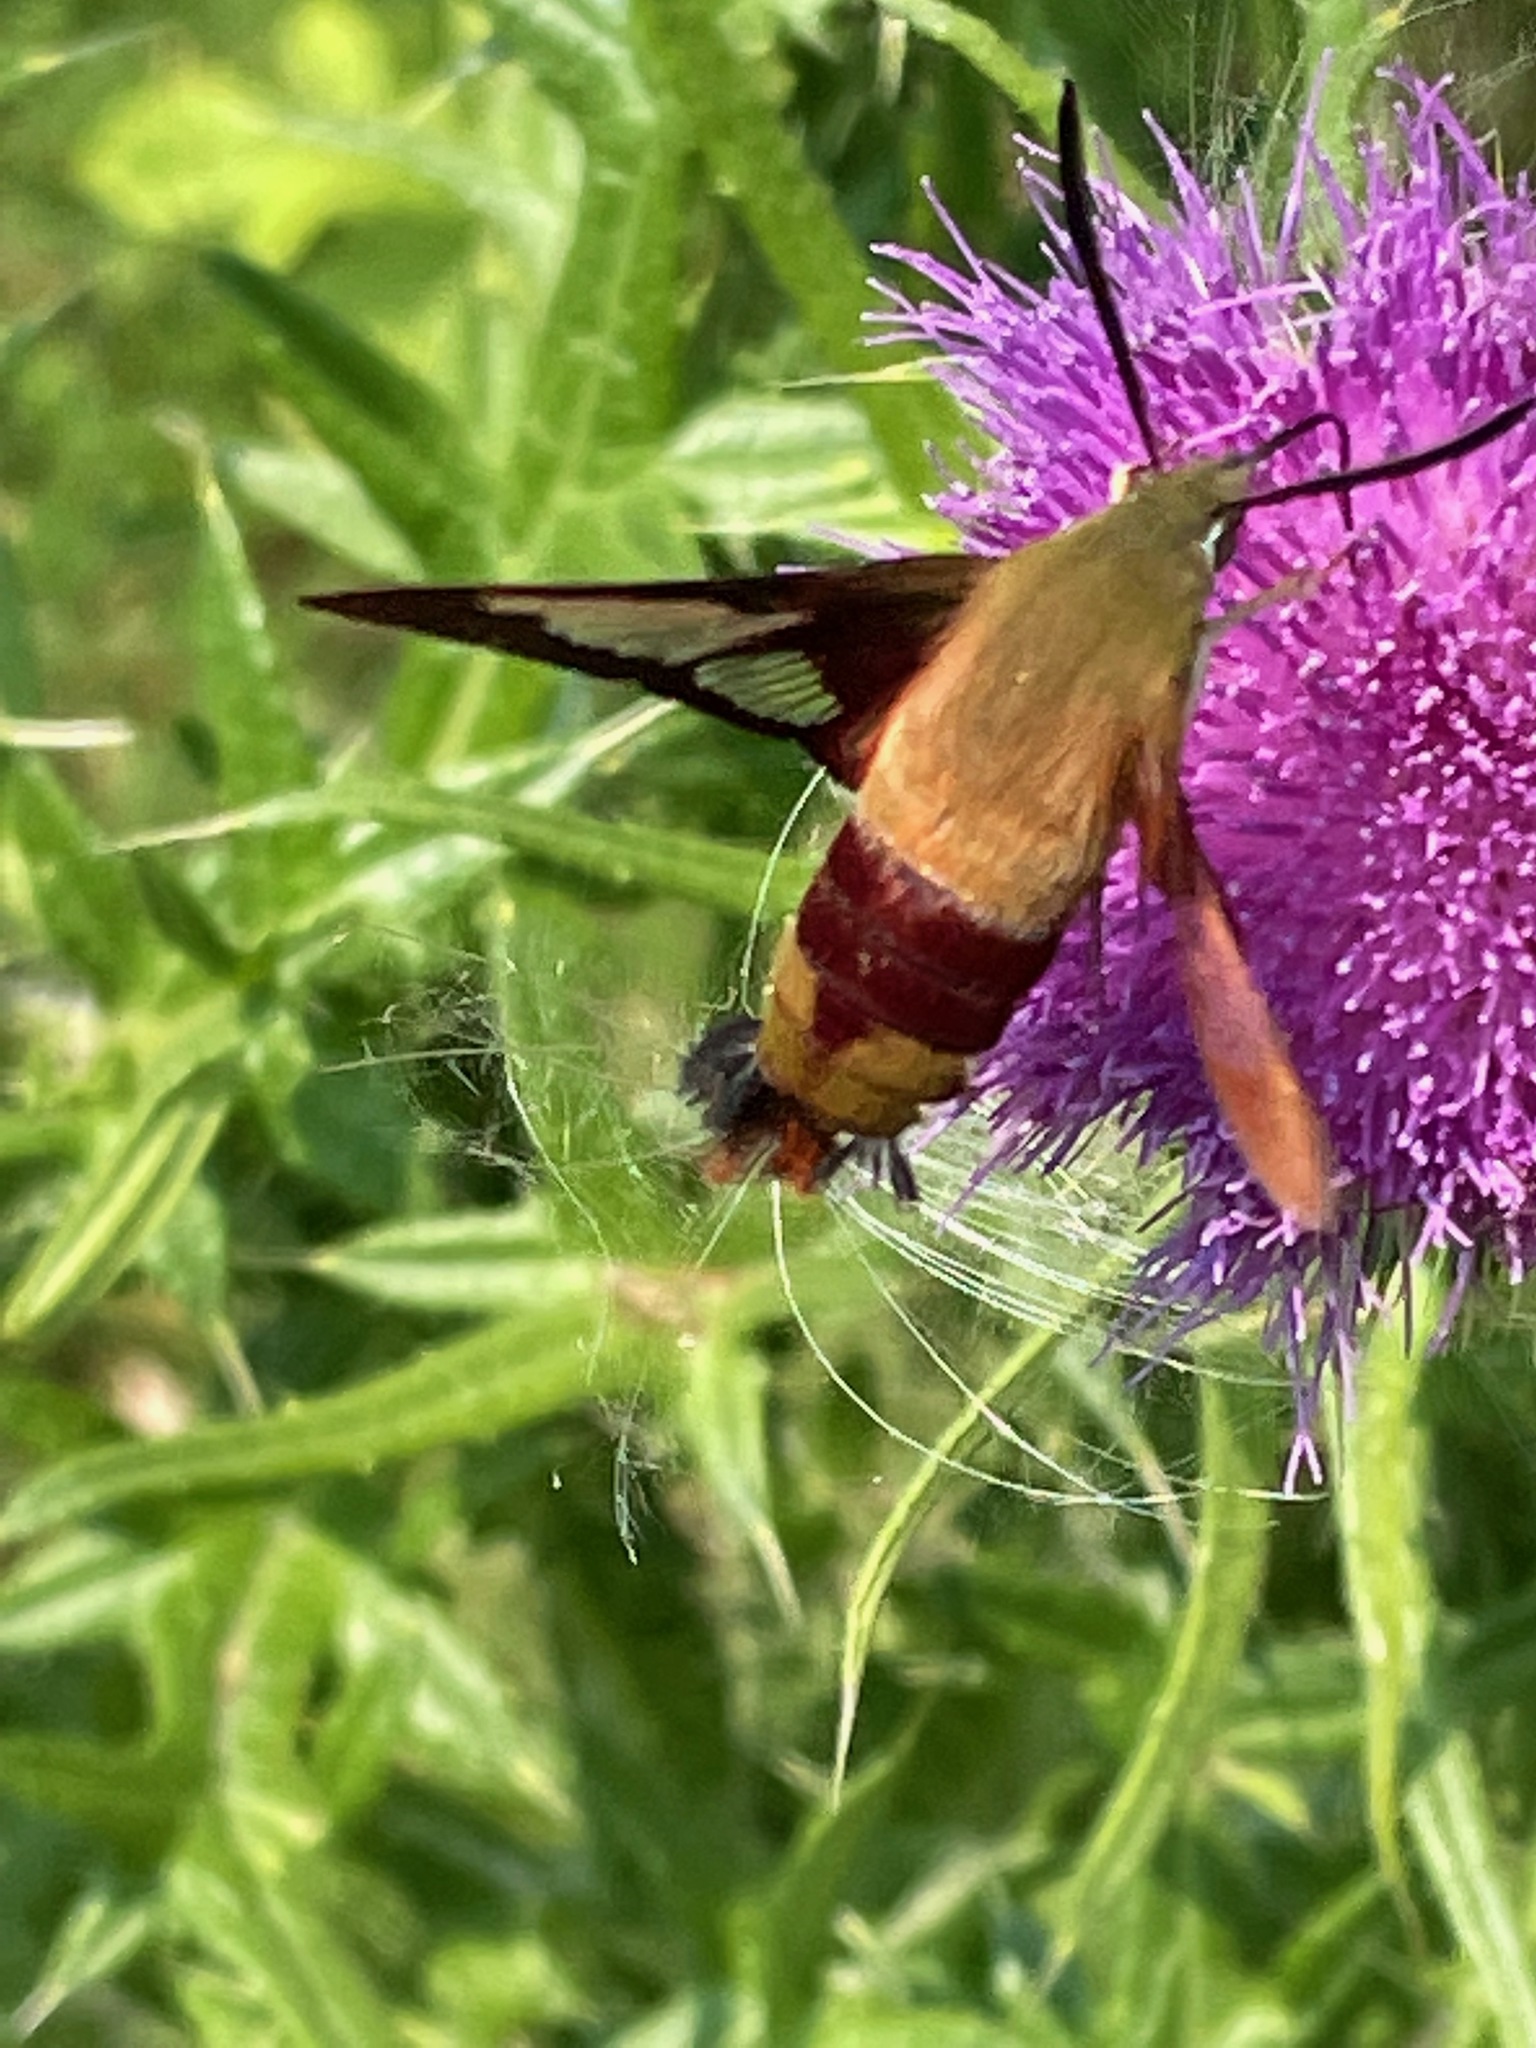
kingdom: Animalia
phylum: Arthropoda
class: Insecta
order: Lepidoptera
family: Sphingidae
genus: Hemaris
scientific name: Hemaris thysbe
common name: Common clear-wing
